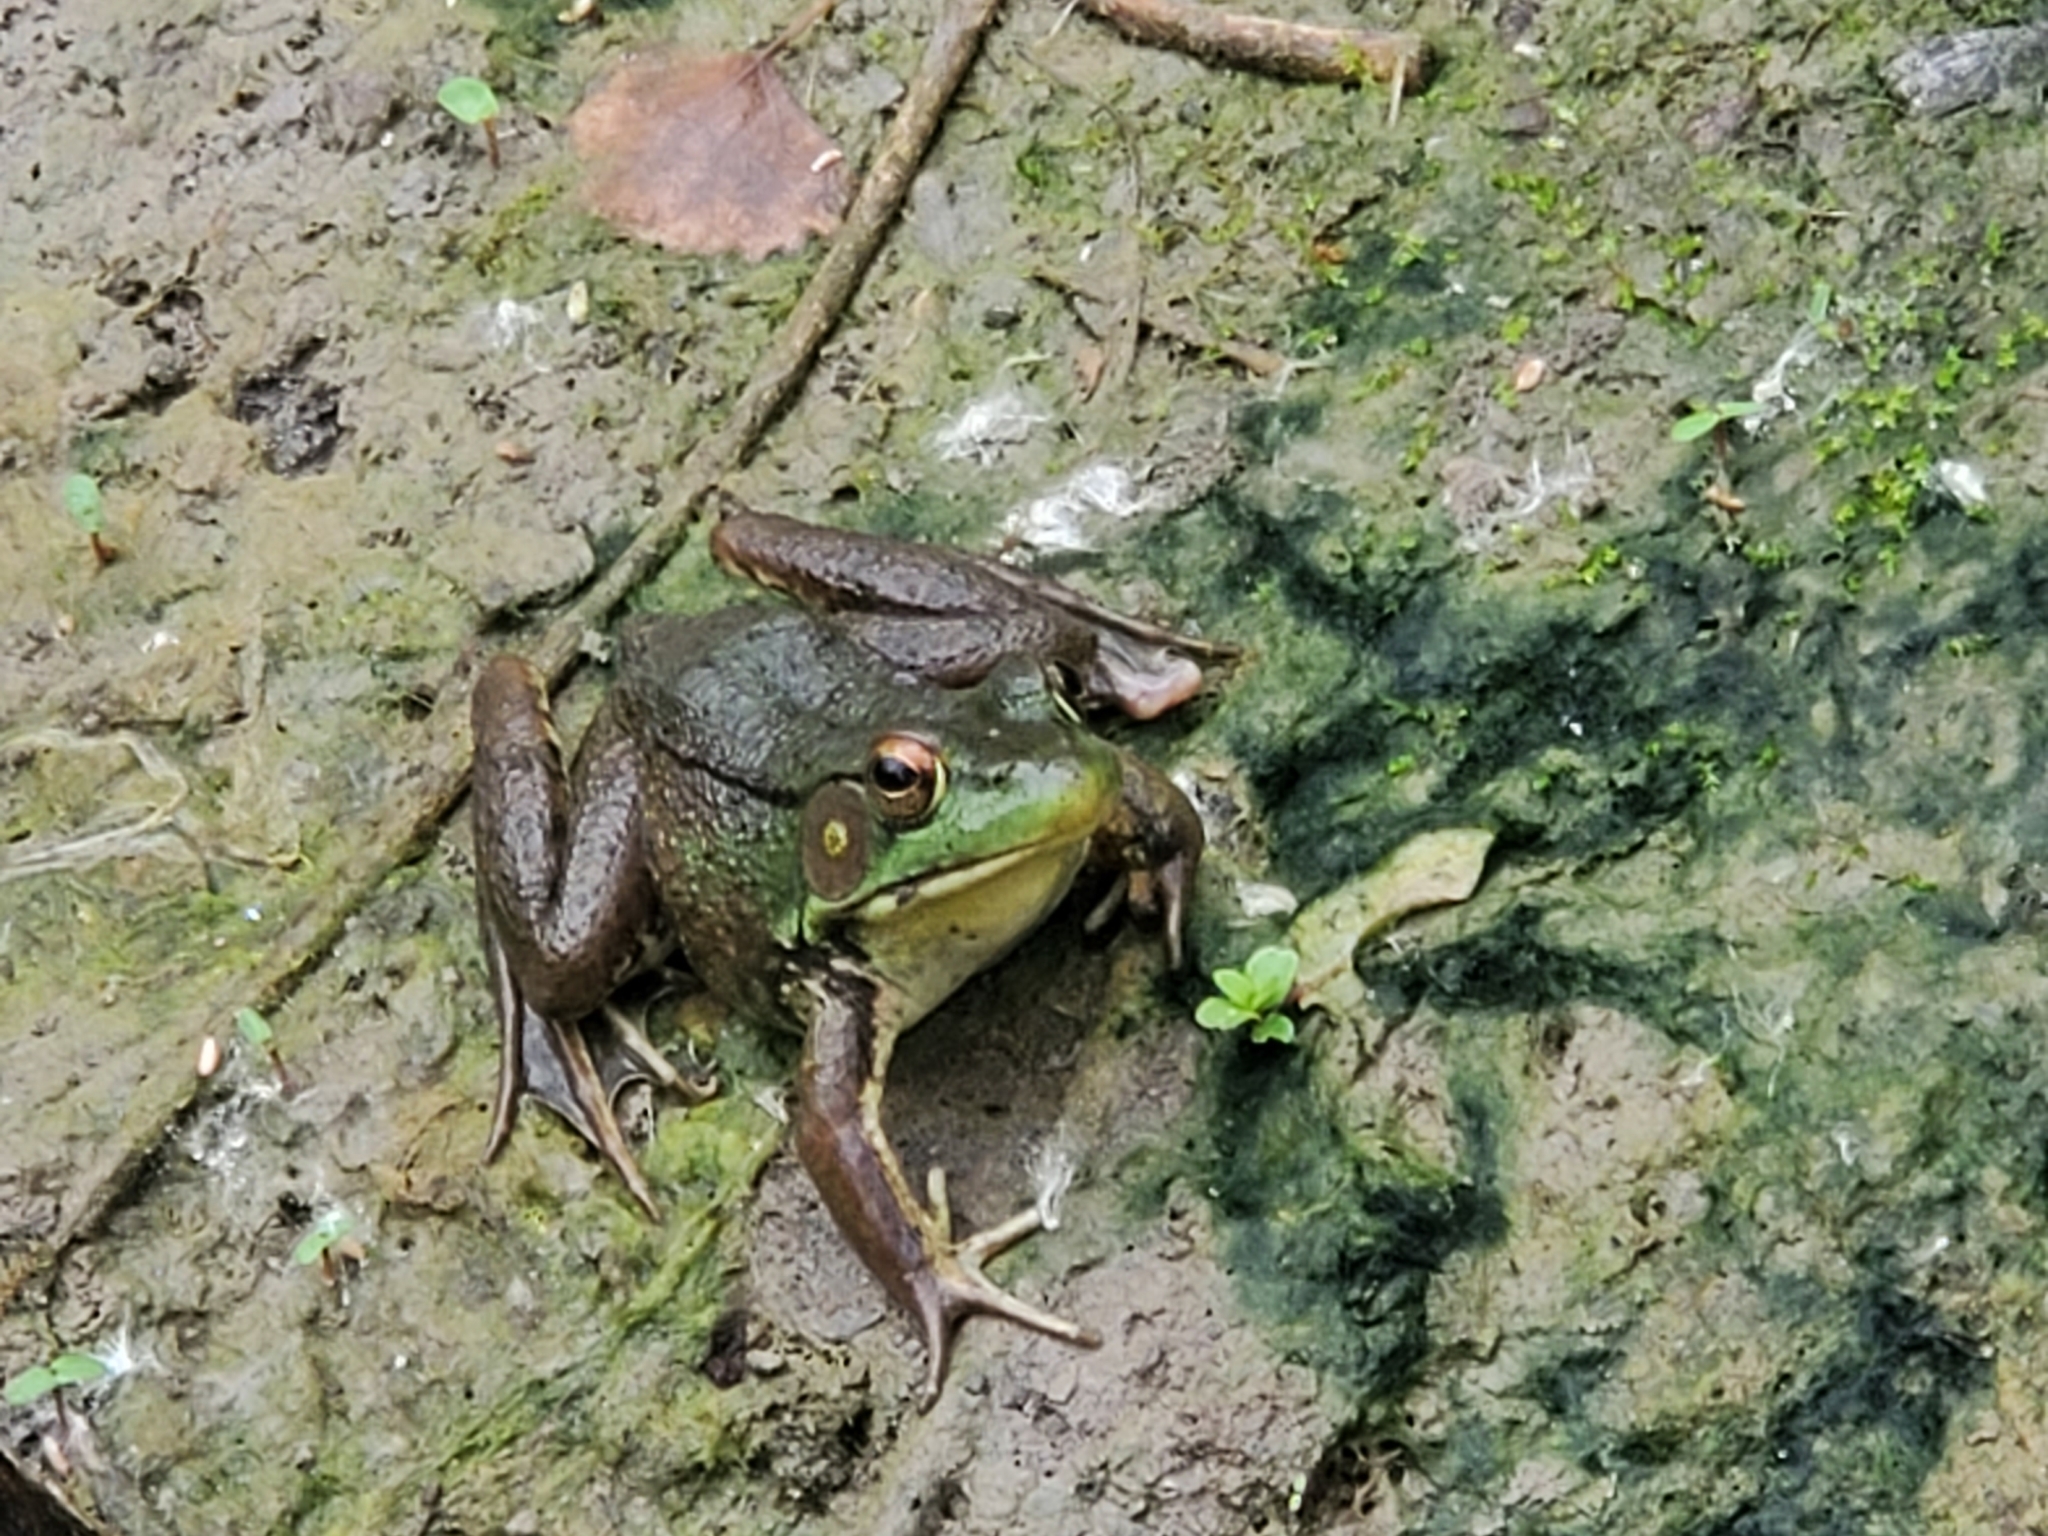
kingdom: Animalia
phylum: Chordata
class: Amphibia
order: Anura
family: Ranidae
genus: Lithobates
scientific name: Lithobates clamitans
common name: Green frog
